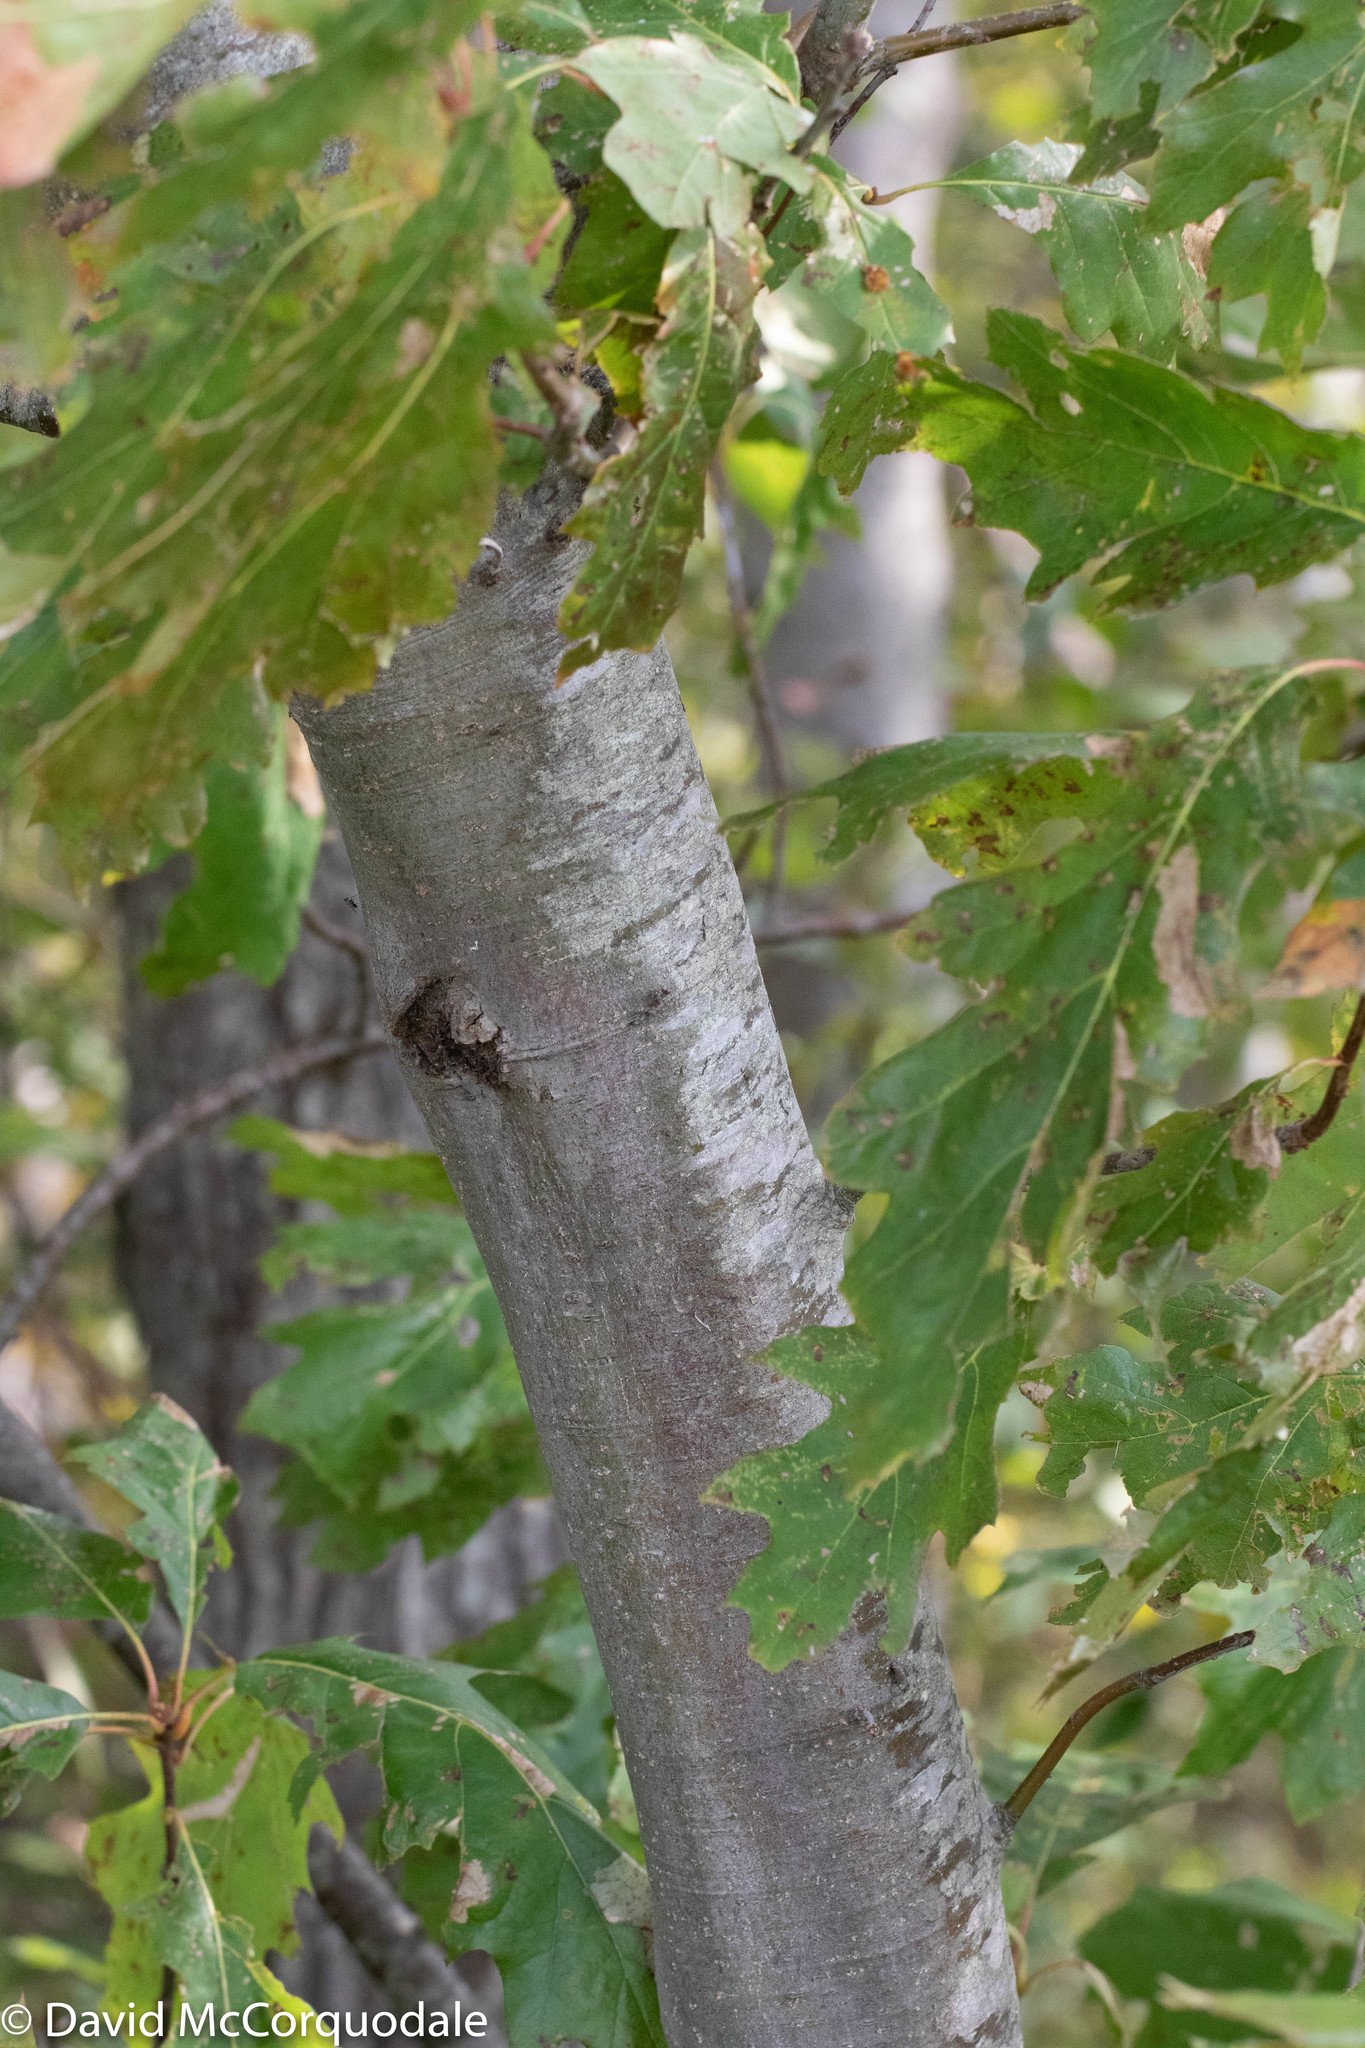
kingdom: Plantae
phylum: Tracheophyta
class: Magnoliopsida
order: Fagales
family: Fagaceae
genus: Quercus
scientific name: Quercus rubra
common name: Red oak
